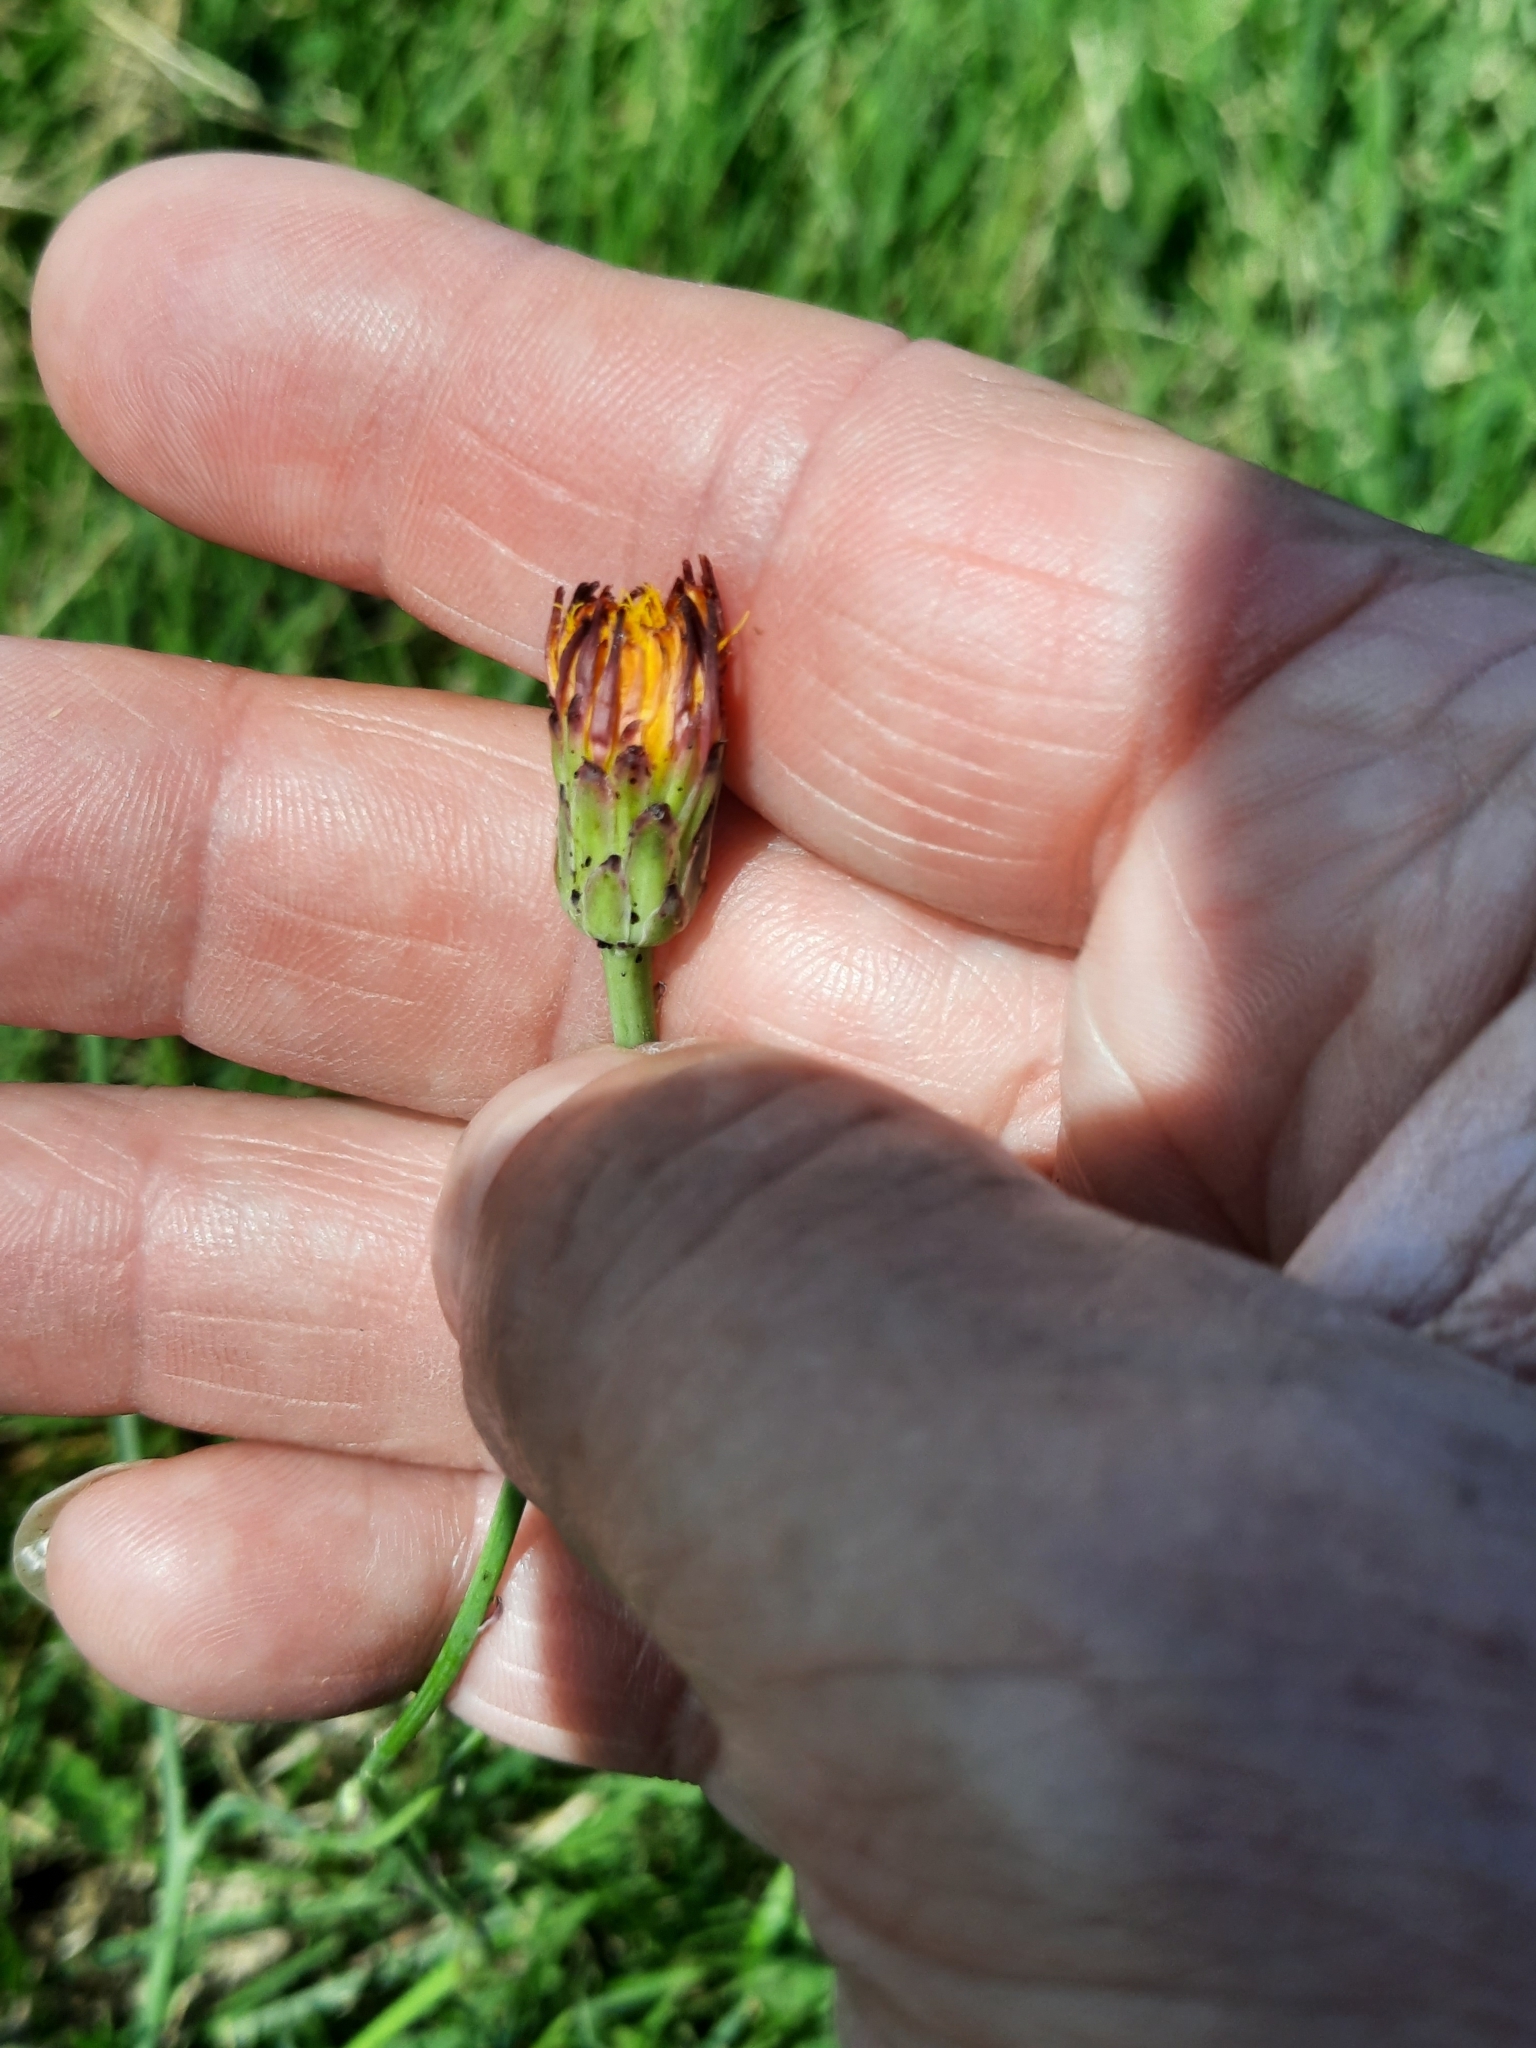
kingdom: Plantae
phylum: Tracheophyta
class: Magnoliopsida
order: Asterales
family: Asteraceae
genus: Hypochaeris
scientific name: Hypochaeris radicata
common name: Flatweed
